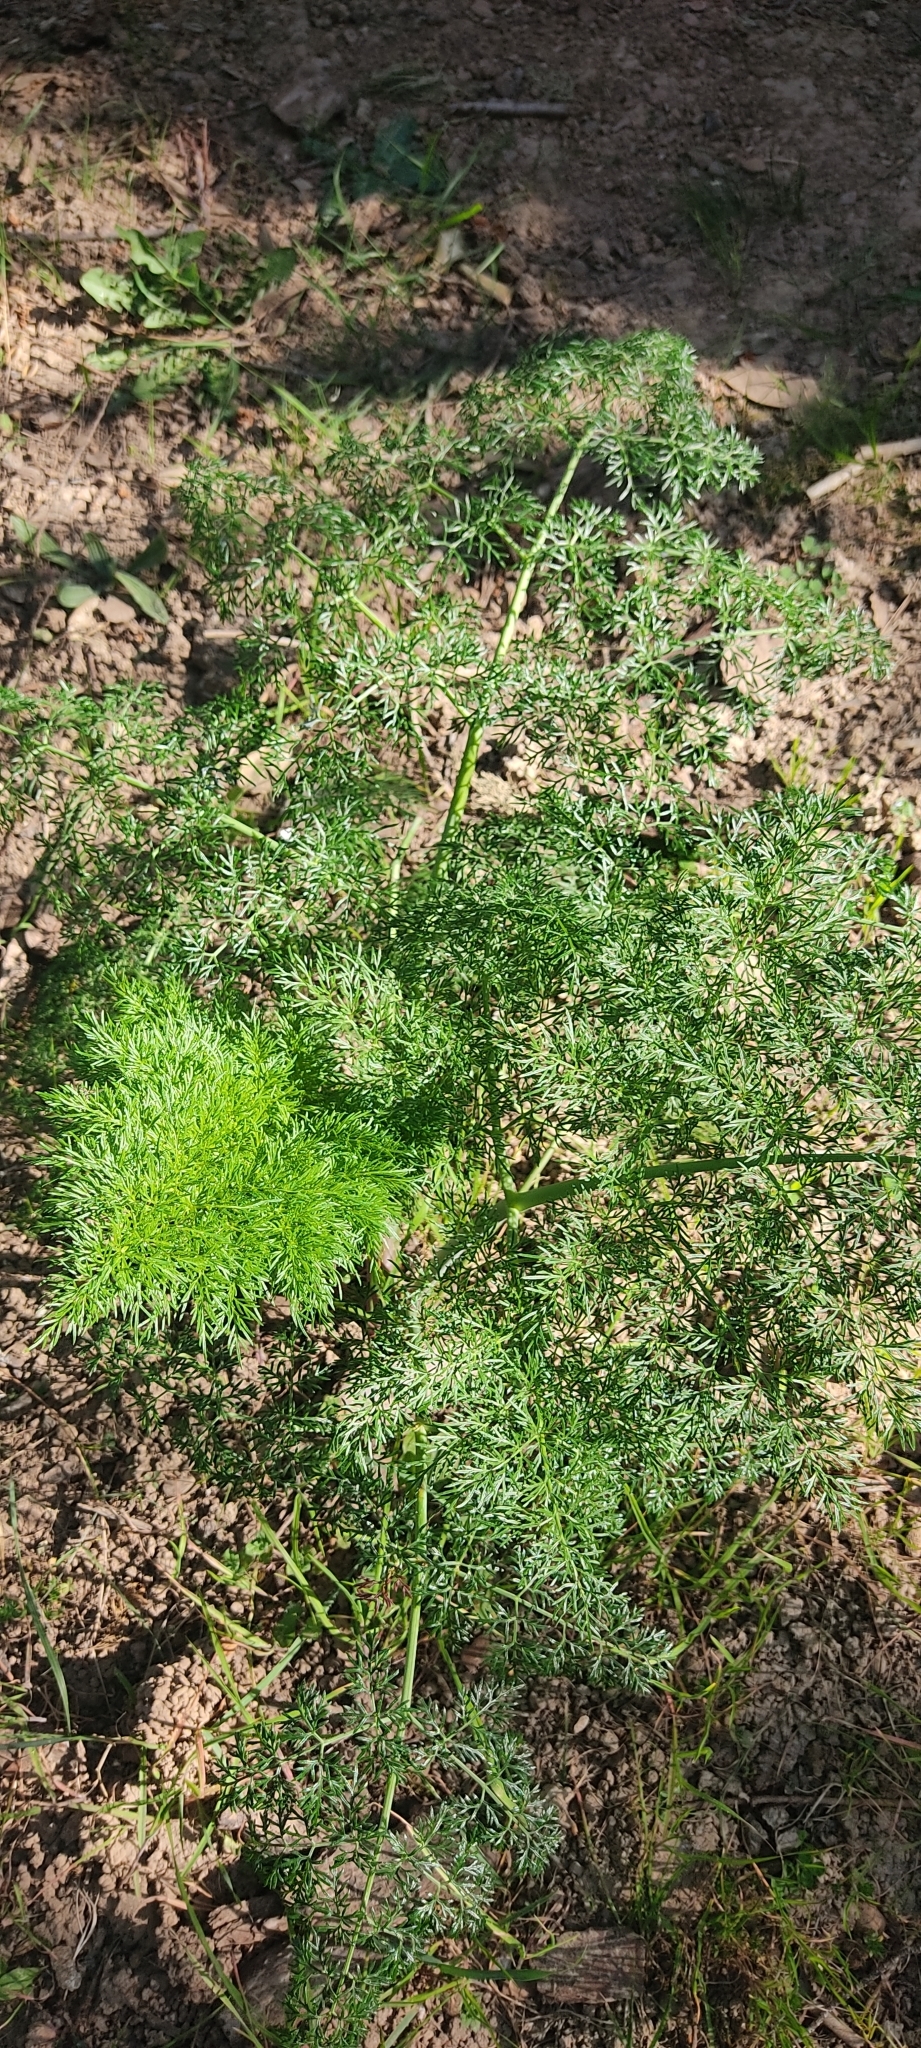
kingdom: Plantae
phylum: Tracheophyta
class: Magnoliopsida
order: Apiales
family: Apiaceae
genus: Ferula
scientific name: Ferula glauca
